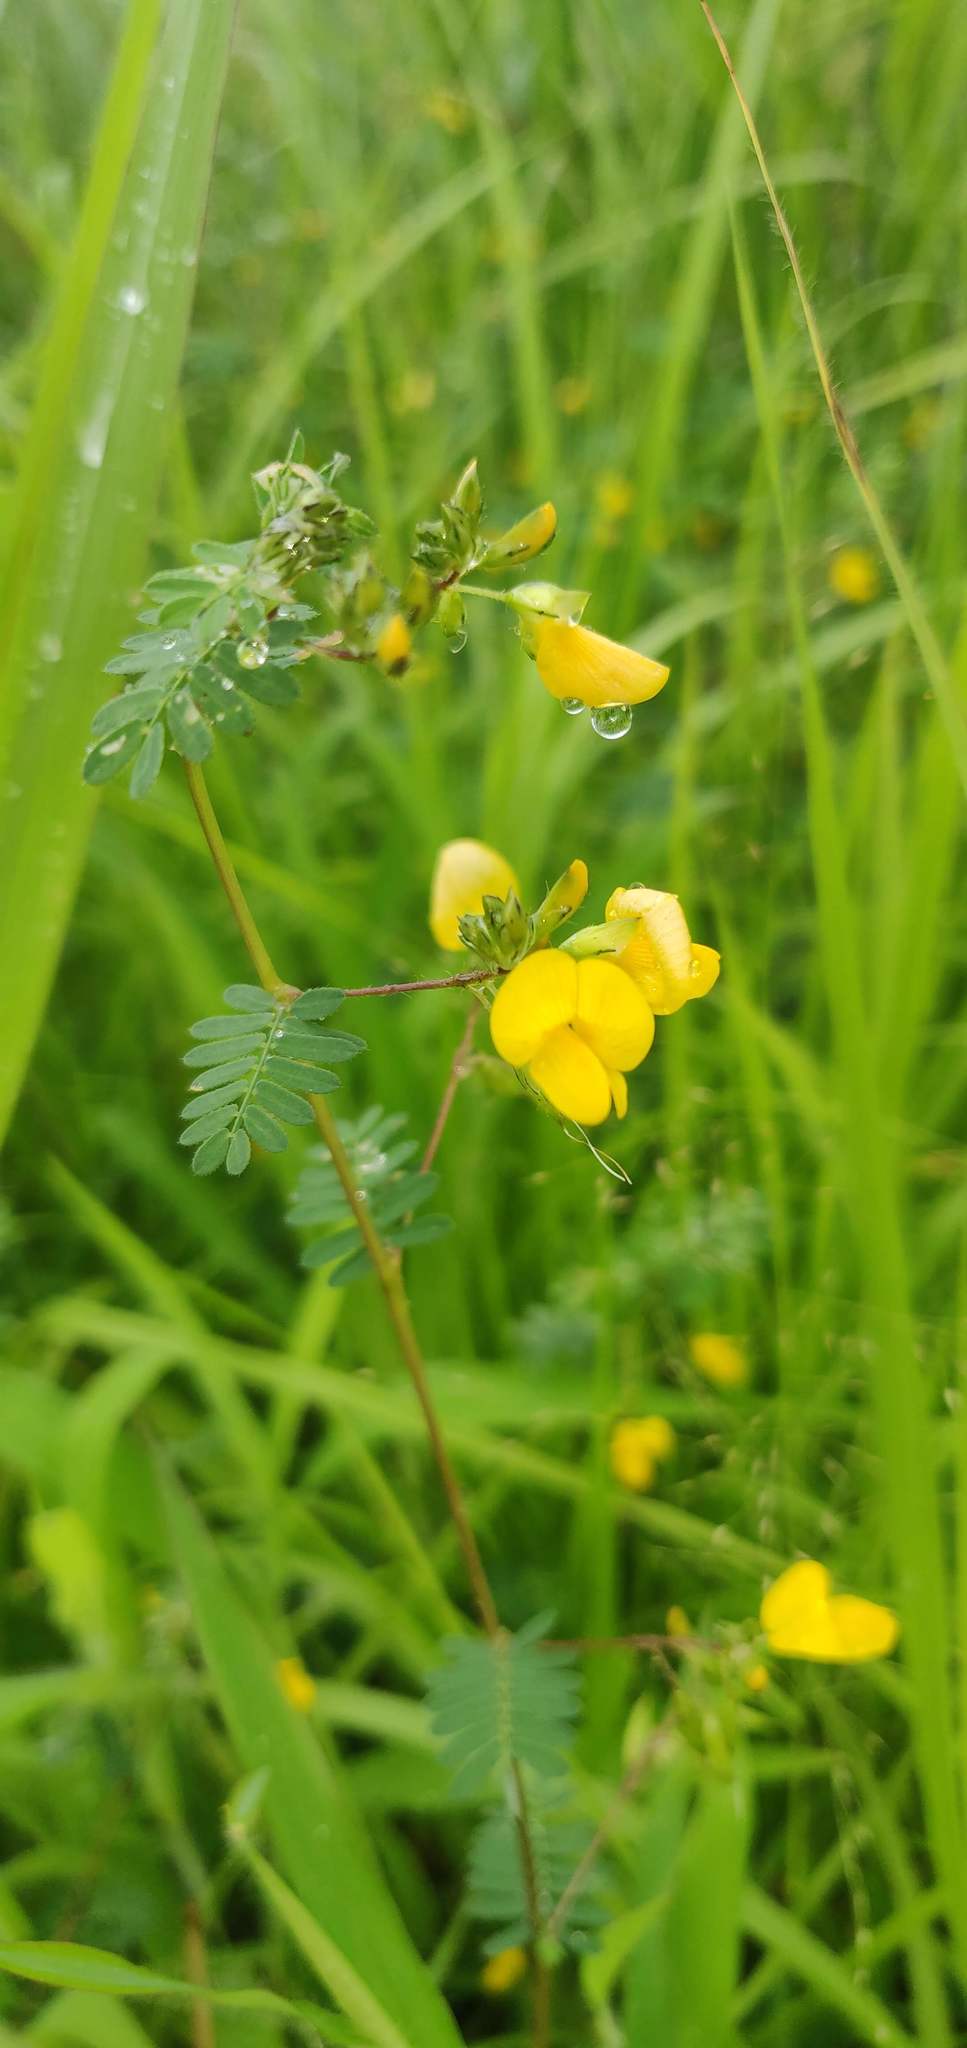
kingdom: Plantae
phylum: Tracheophyta
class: Magnoliopsida
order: Fabales
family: Fabaceae
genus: Smithia
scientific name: Smithia sensitiva
